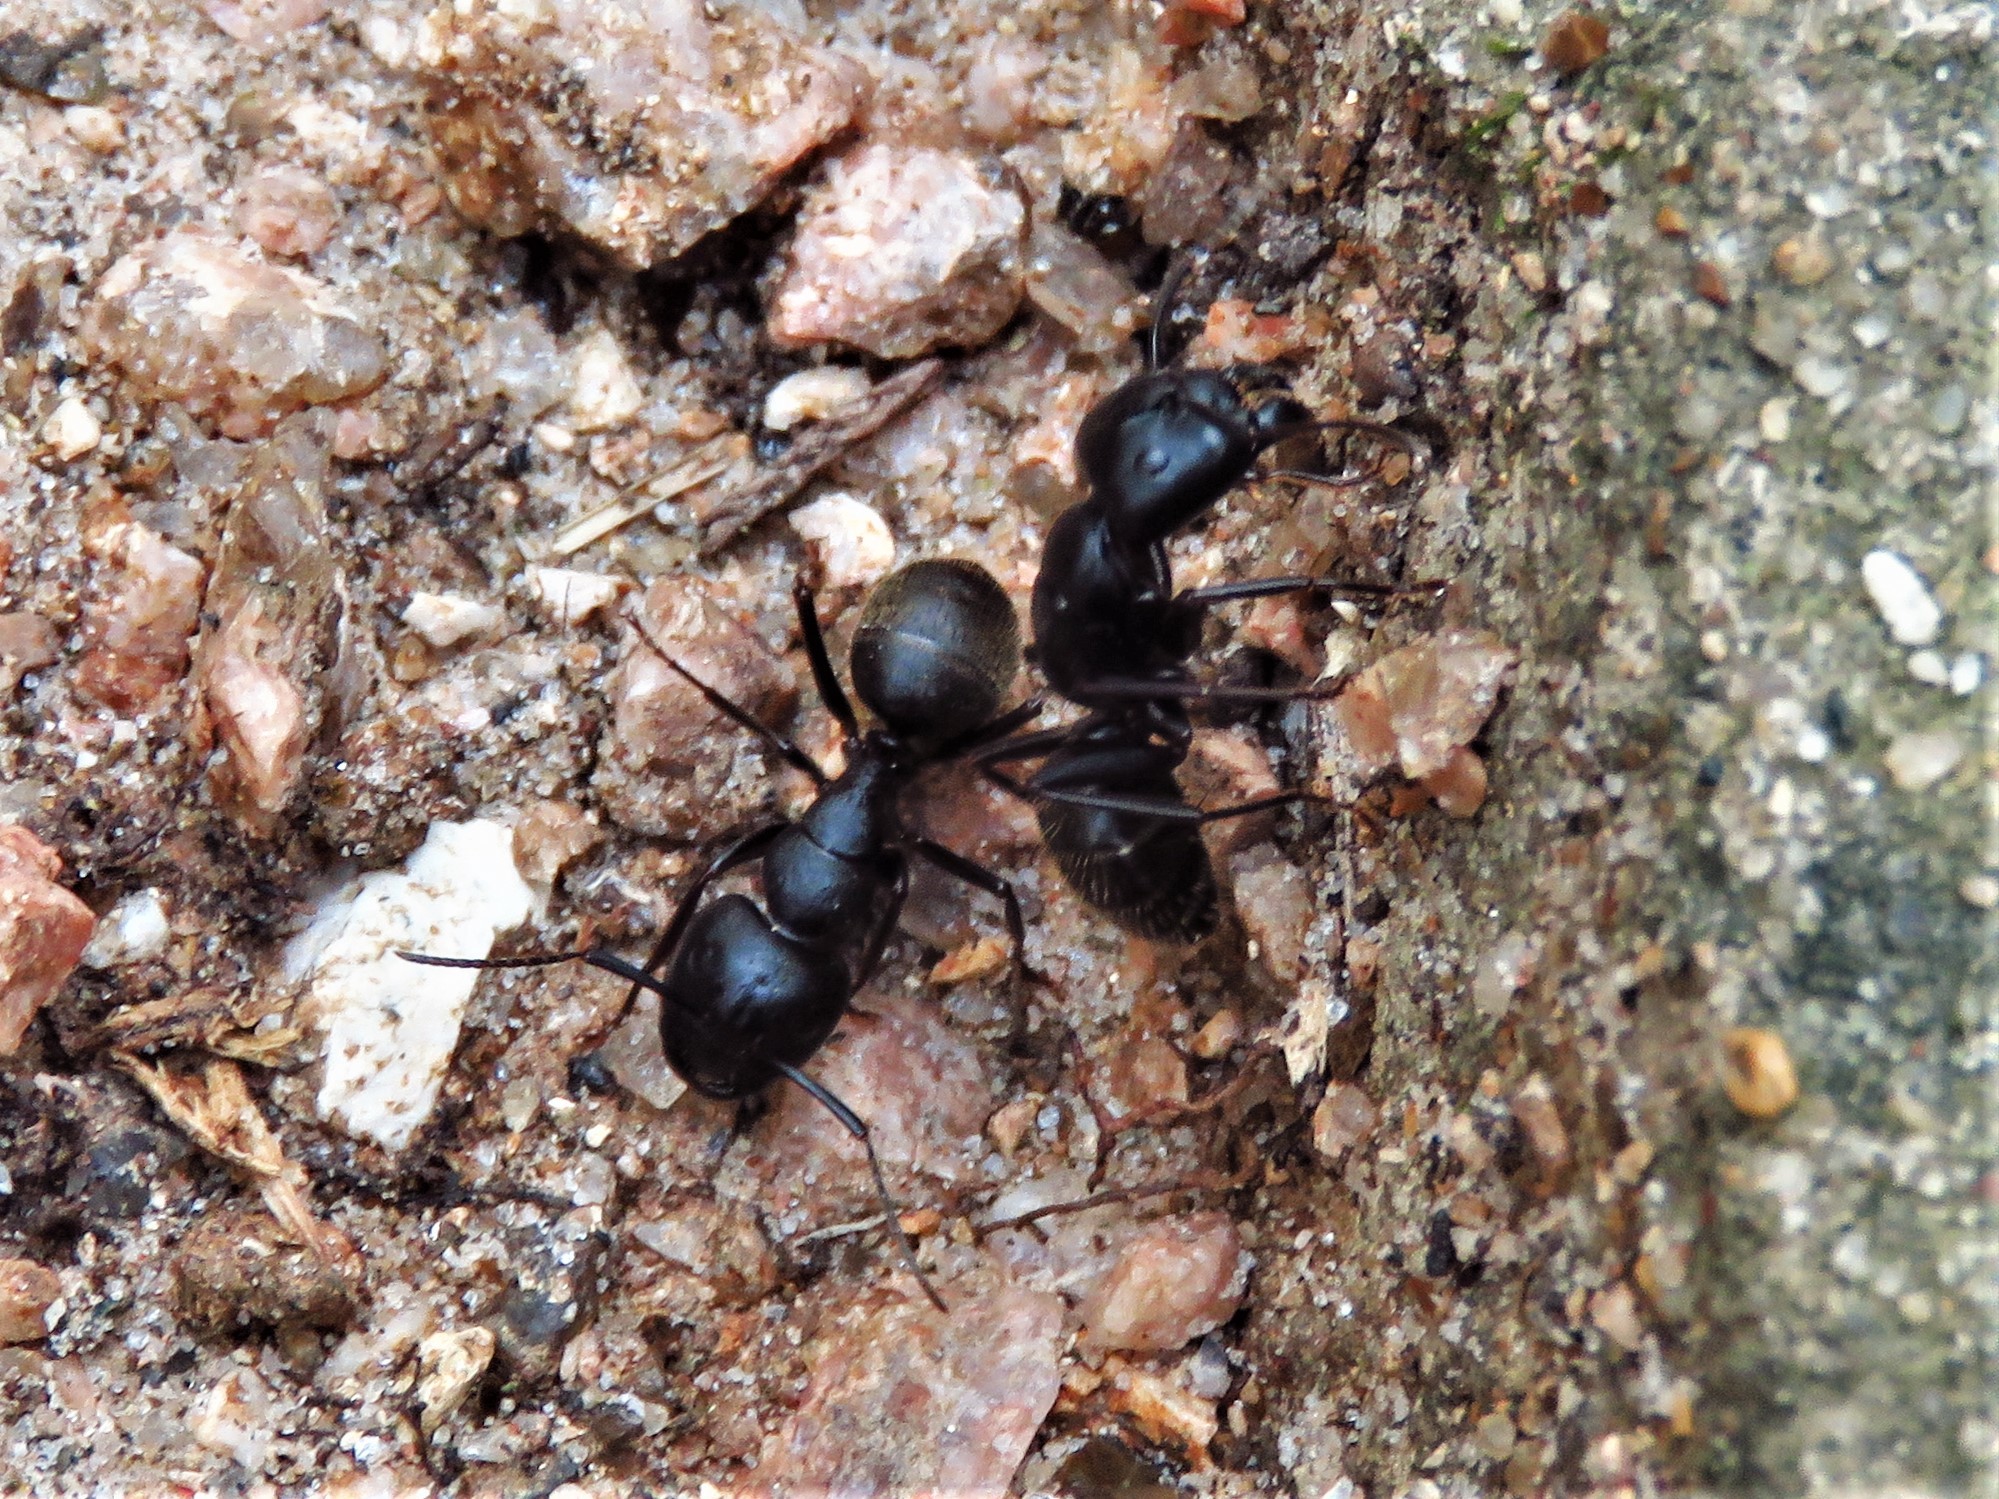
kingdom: Animalia
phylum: Arthropoda
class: Insecta
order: Hymenoptera
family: Formicidae
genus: Camponotus
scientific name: Camponotus pennsylvanicus
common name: Black carpenter ant
